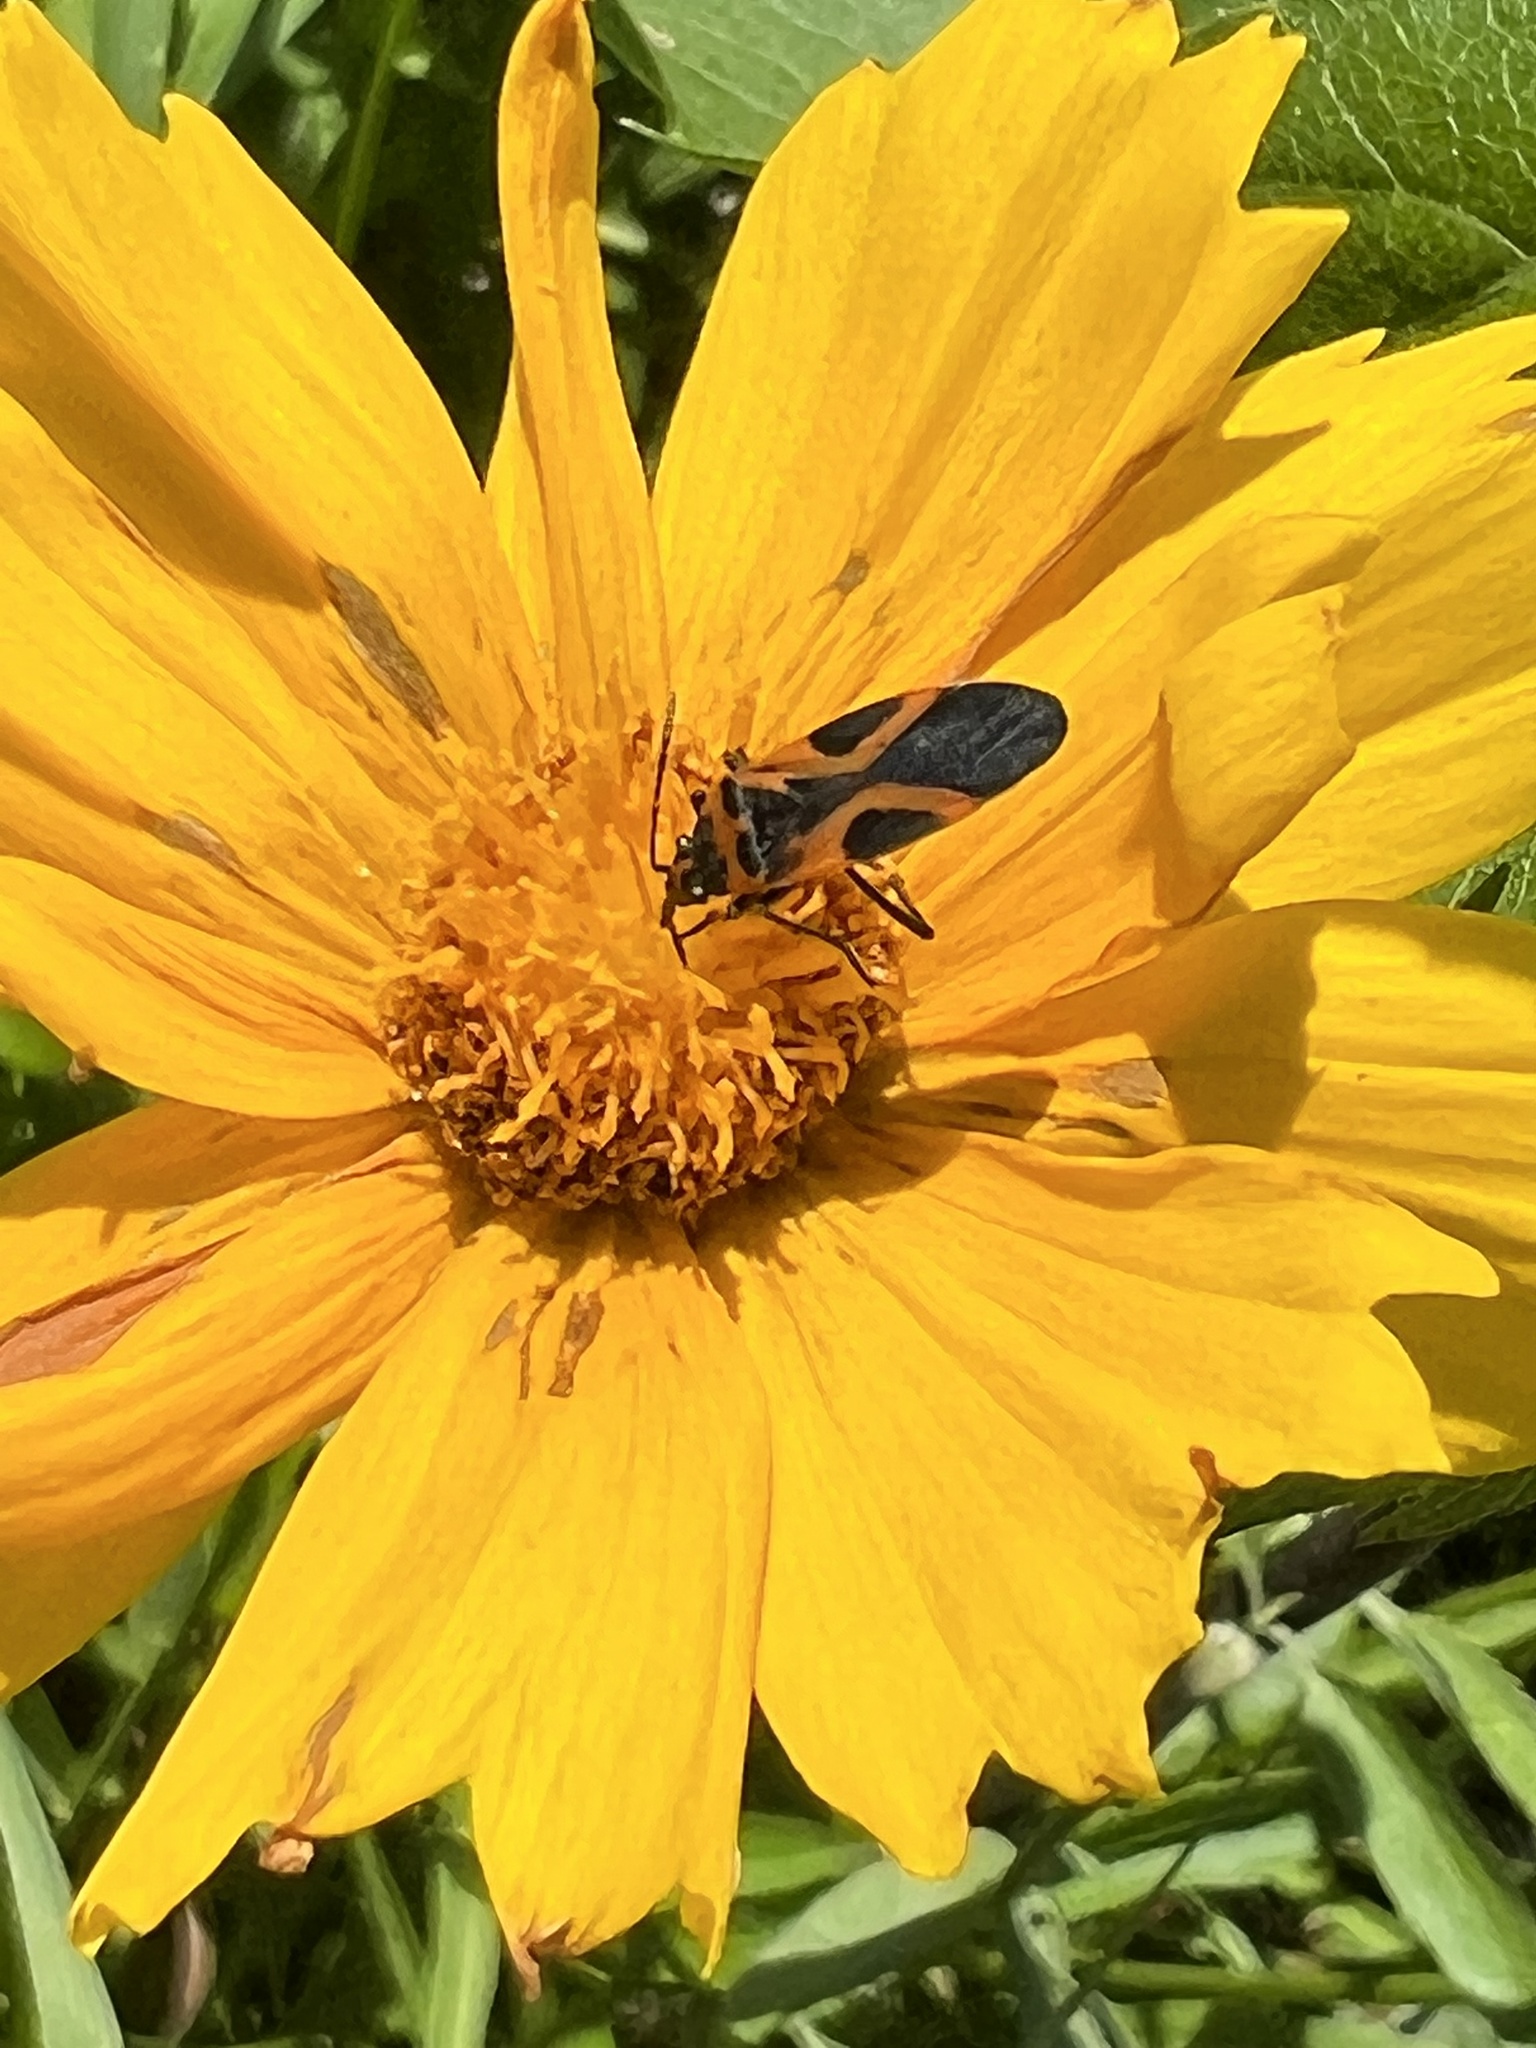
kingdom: Animalia
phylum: Arthropoda
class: Insecta
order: Hemiptera
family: Lygaeidae
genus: Lygaeus
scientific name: Lygaeus turcicus
